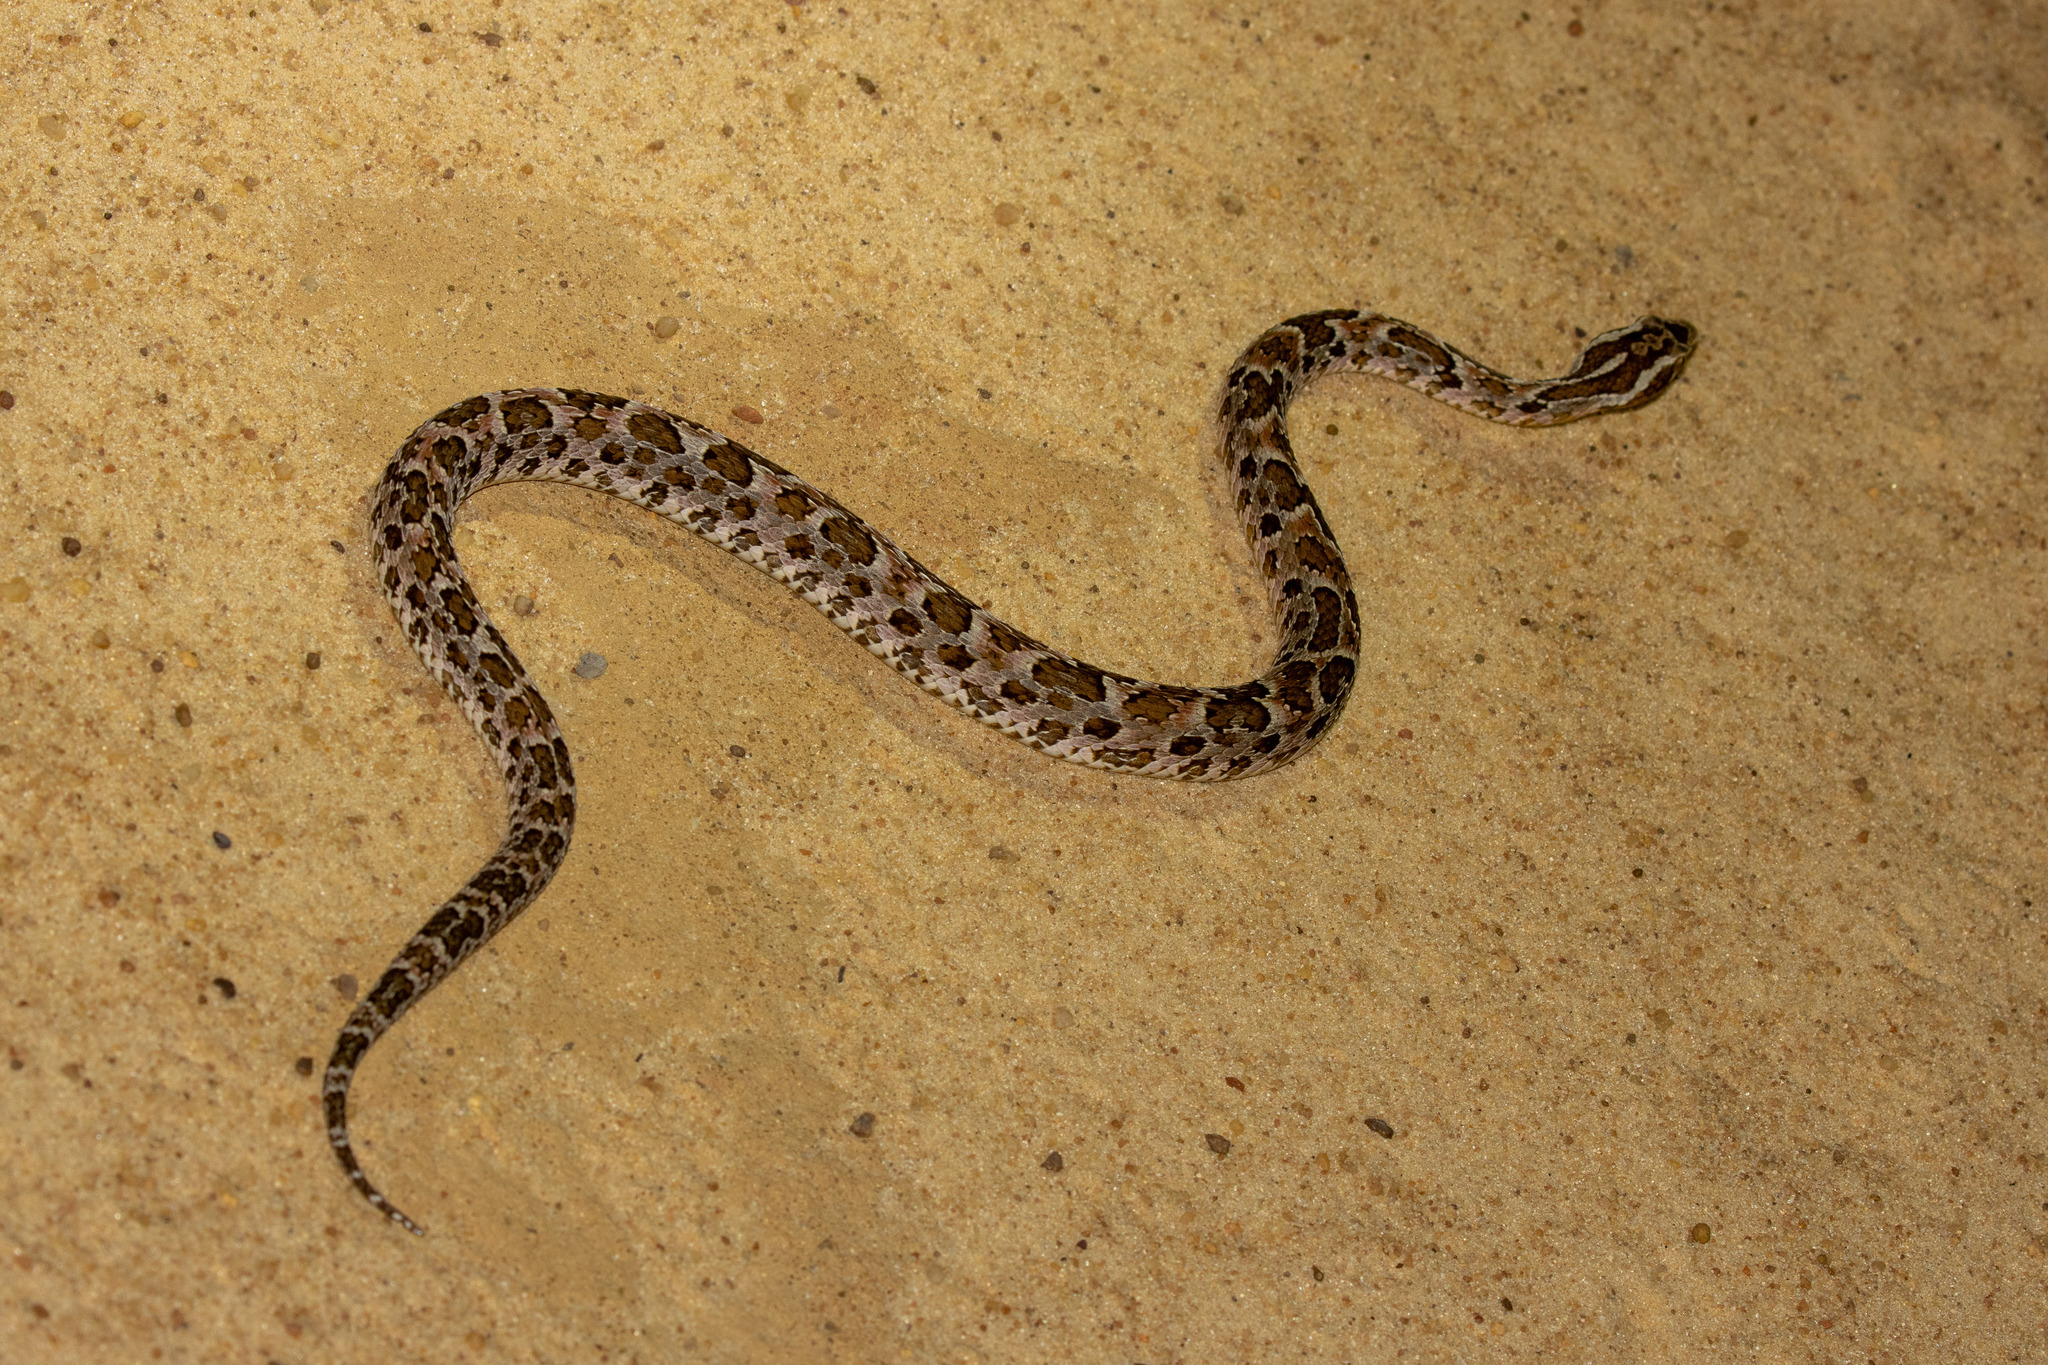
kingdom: Animalia
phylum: Chordata
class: Squamata
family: Viperidae
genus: Bothrops
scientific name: Bothrops erythromelas
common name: Caatinga lancehead
